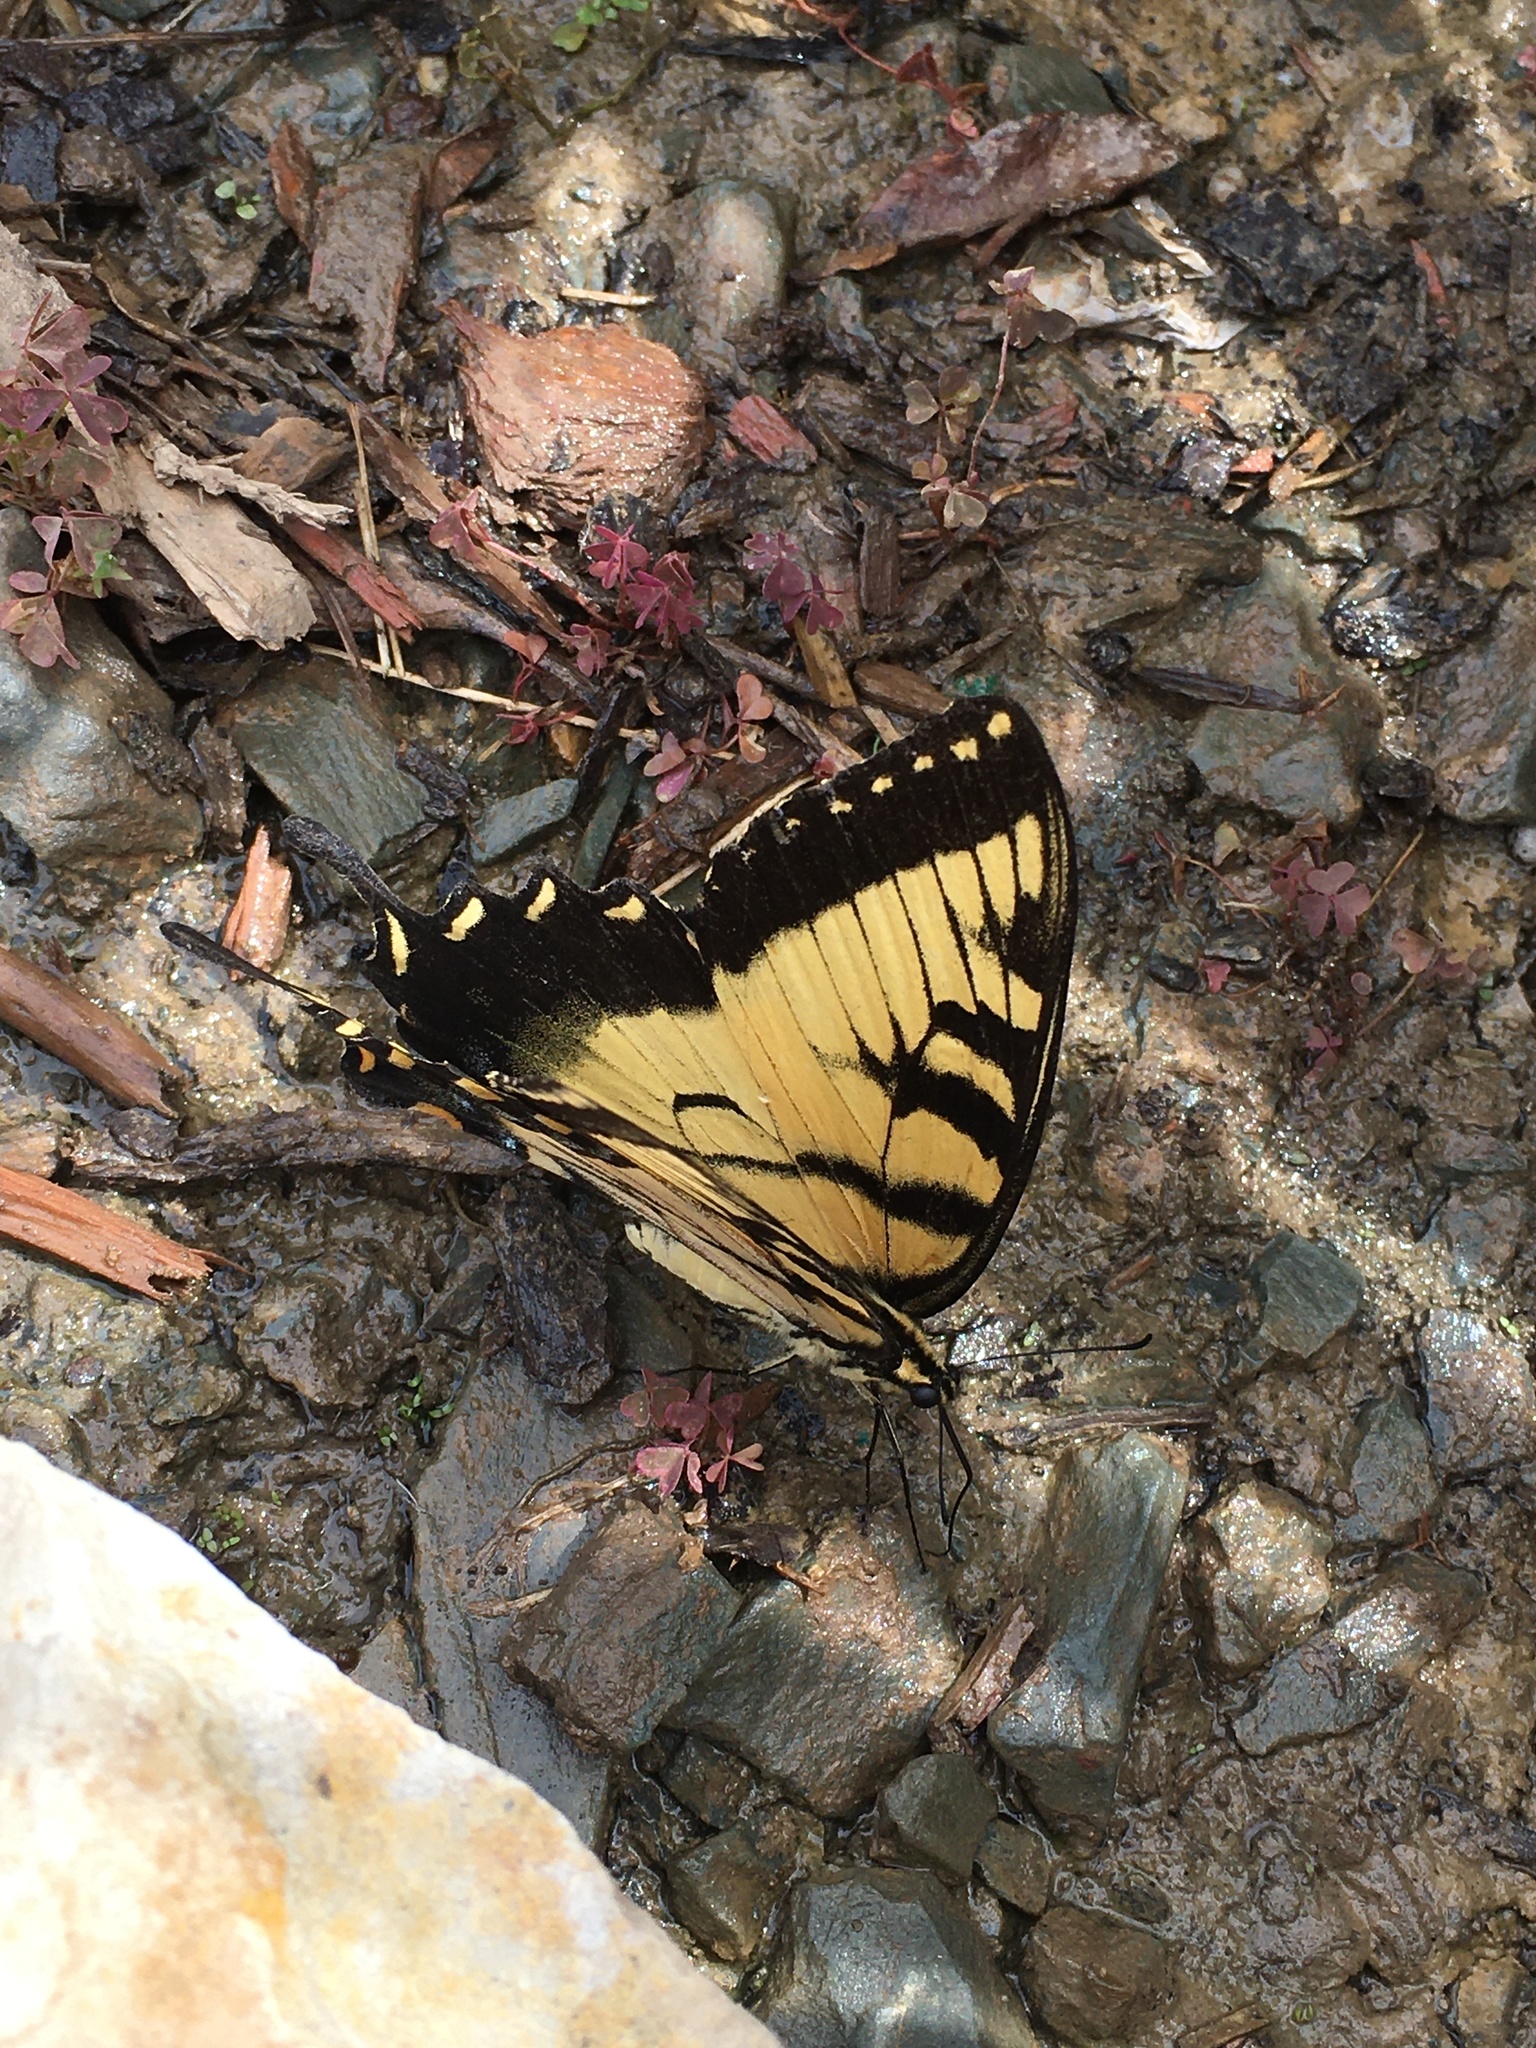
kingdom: Animalia
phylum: Arthropoda
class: Insecta
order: Lepidoptera
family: Papilionidae
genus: Papilio
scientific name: Papilio glaucus
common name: Tiger swallowtail
